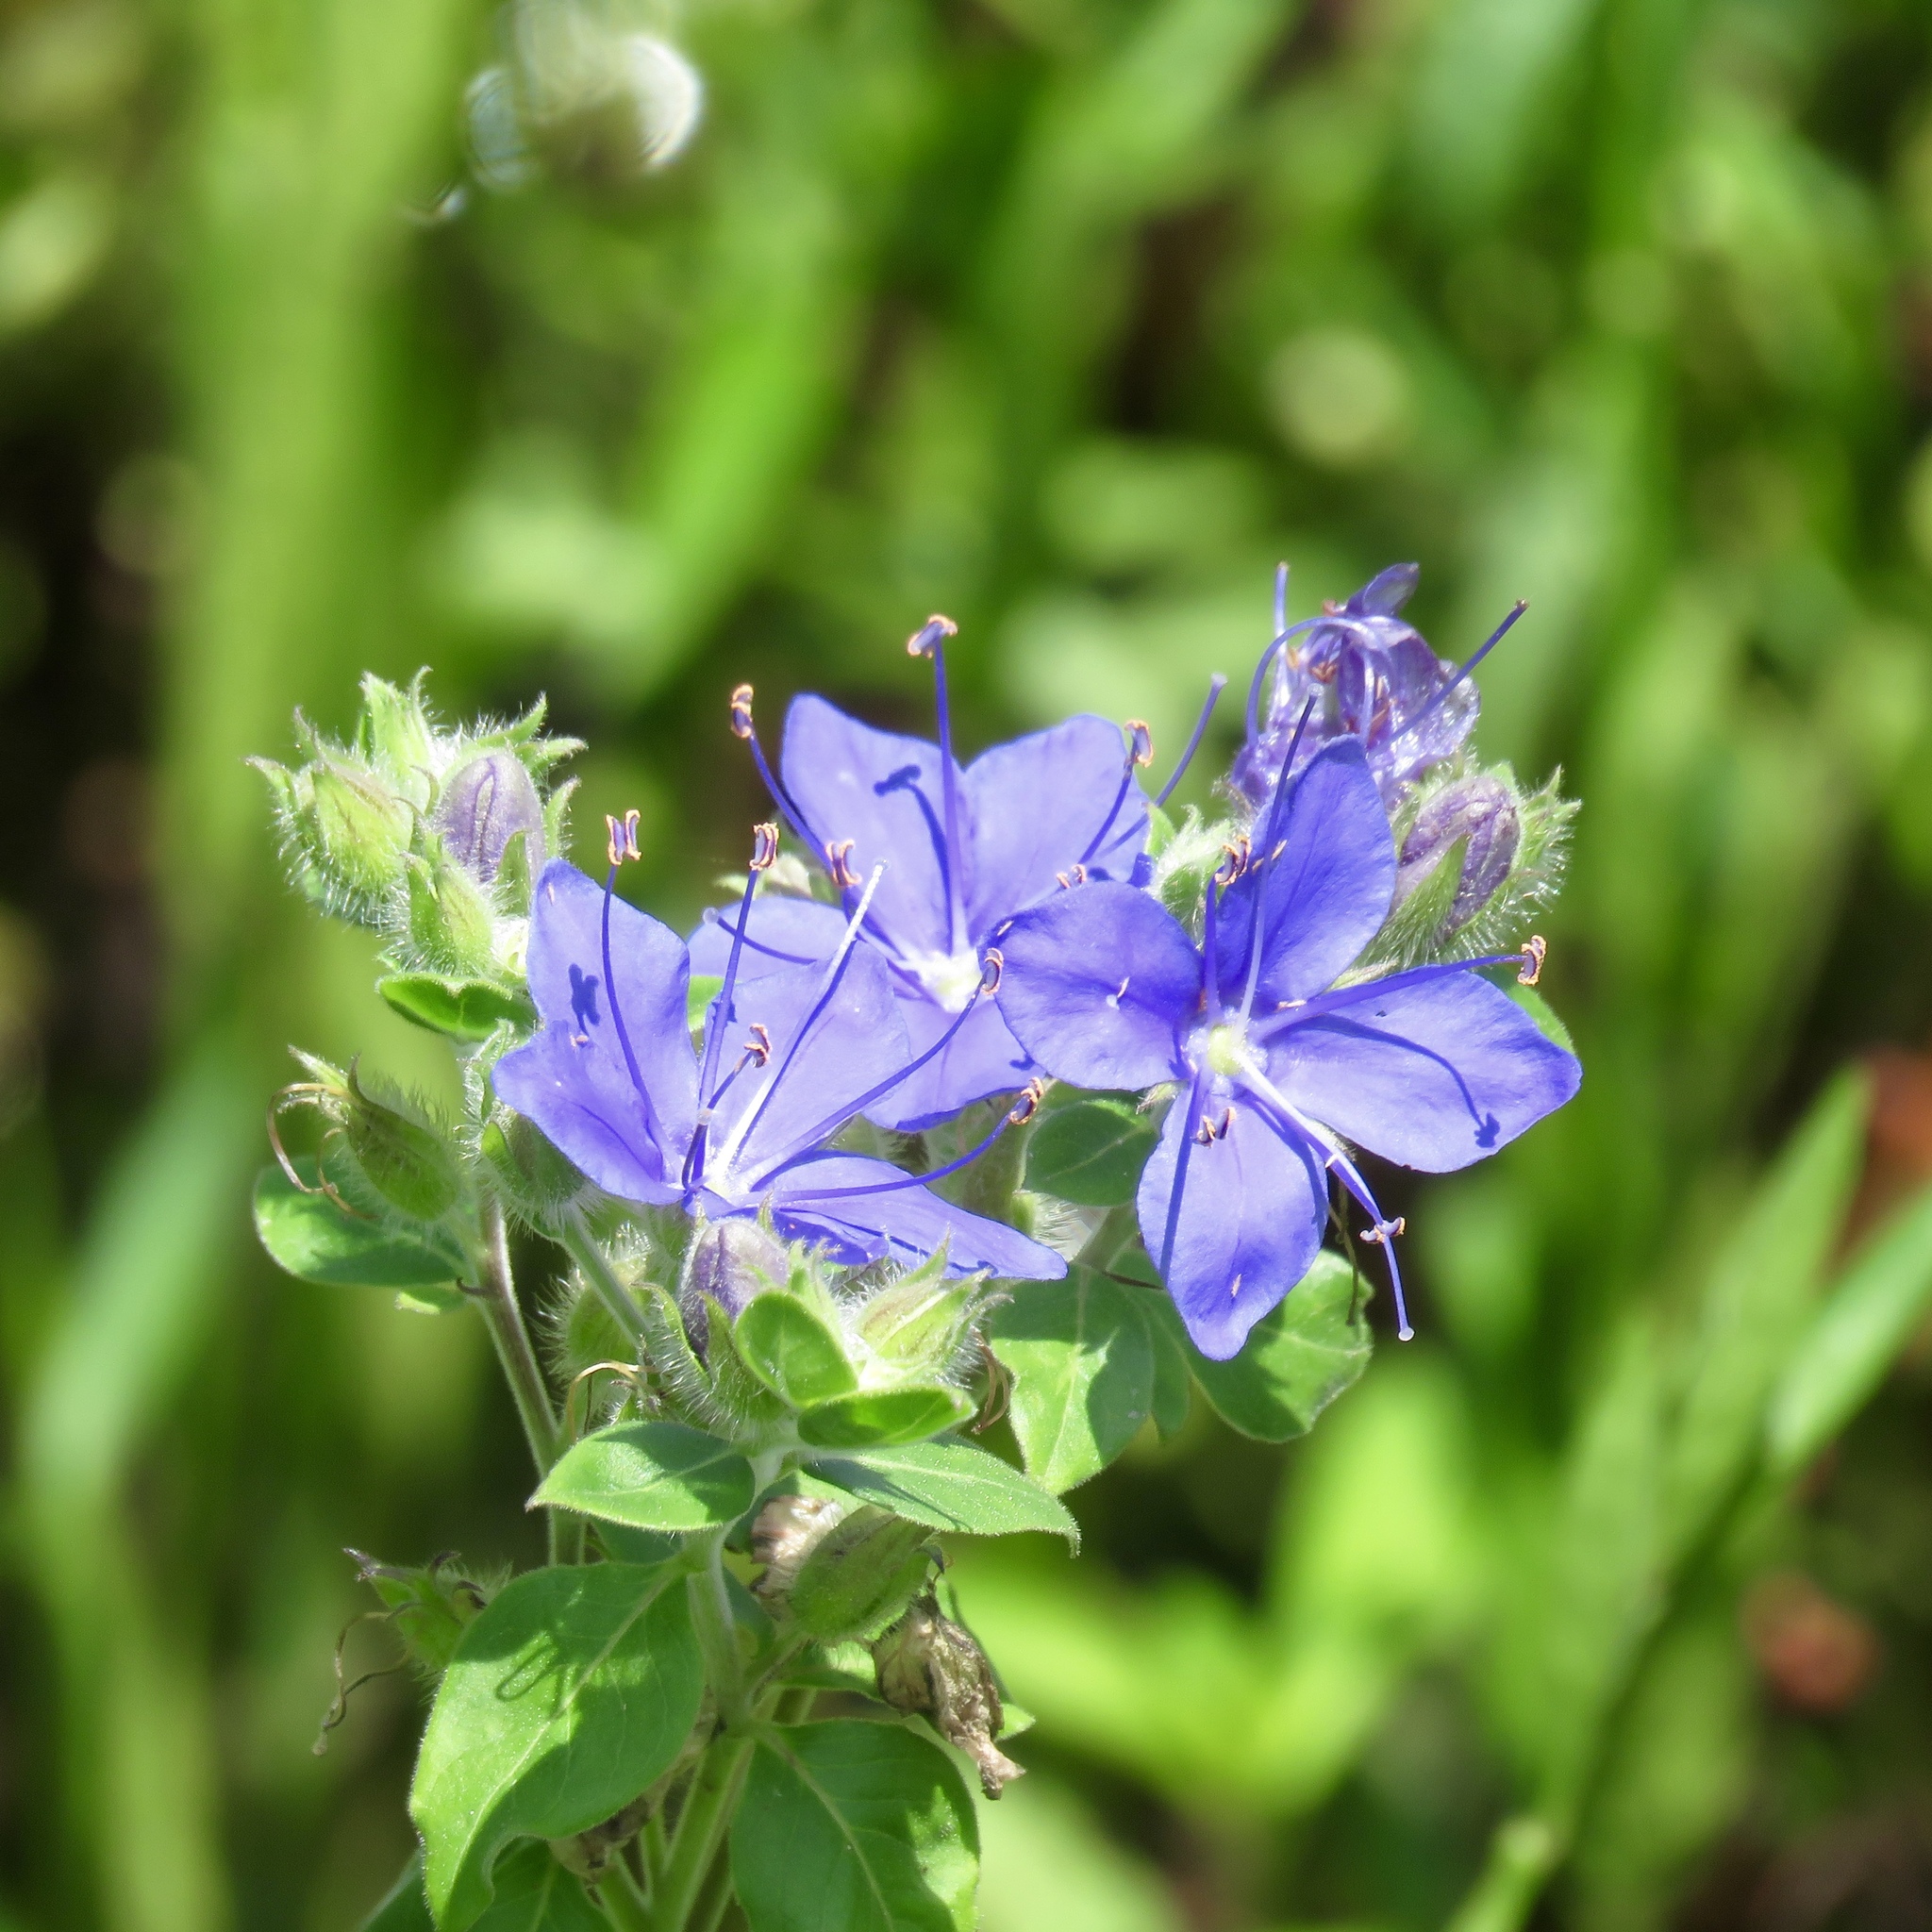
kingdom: Plantae
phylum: Tracheophyta
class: Magnoliopsida
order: Solanales
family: Hydroleaceae
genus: Hydrolea
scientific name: Hydrolea ovata
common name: Ovate false fiddleleaf
